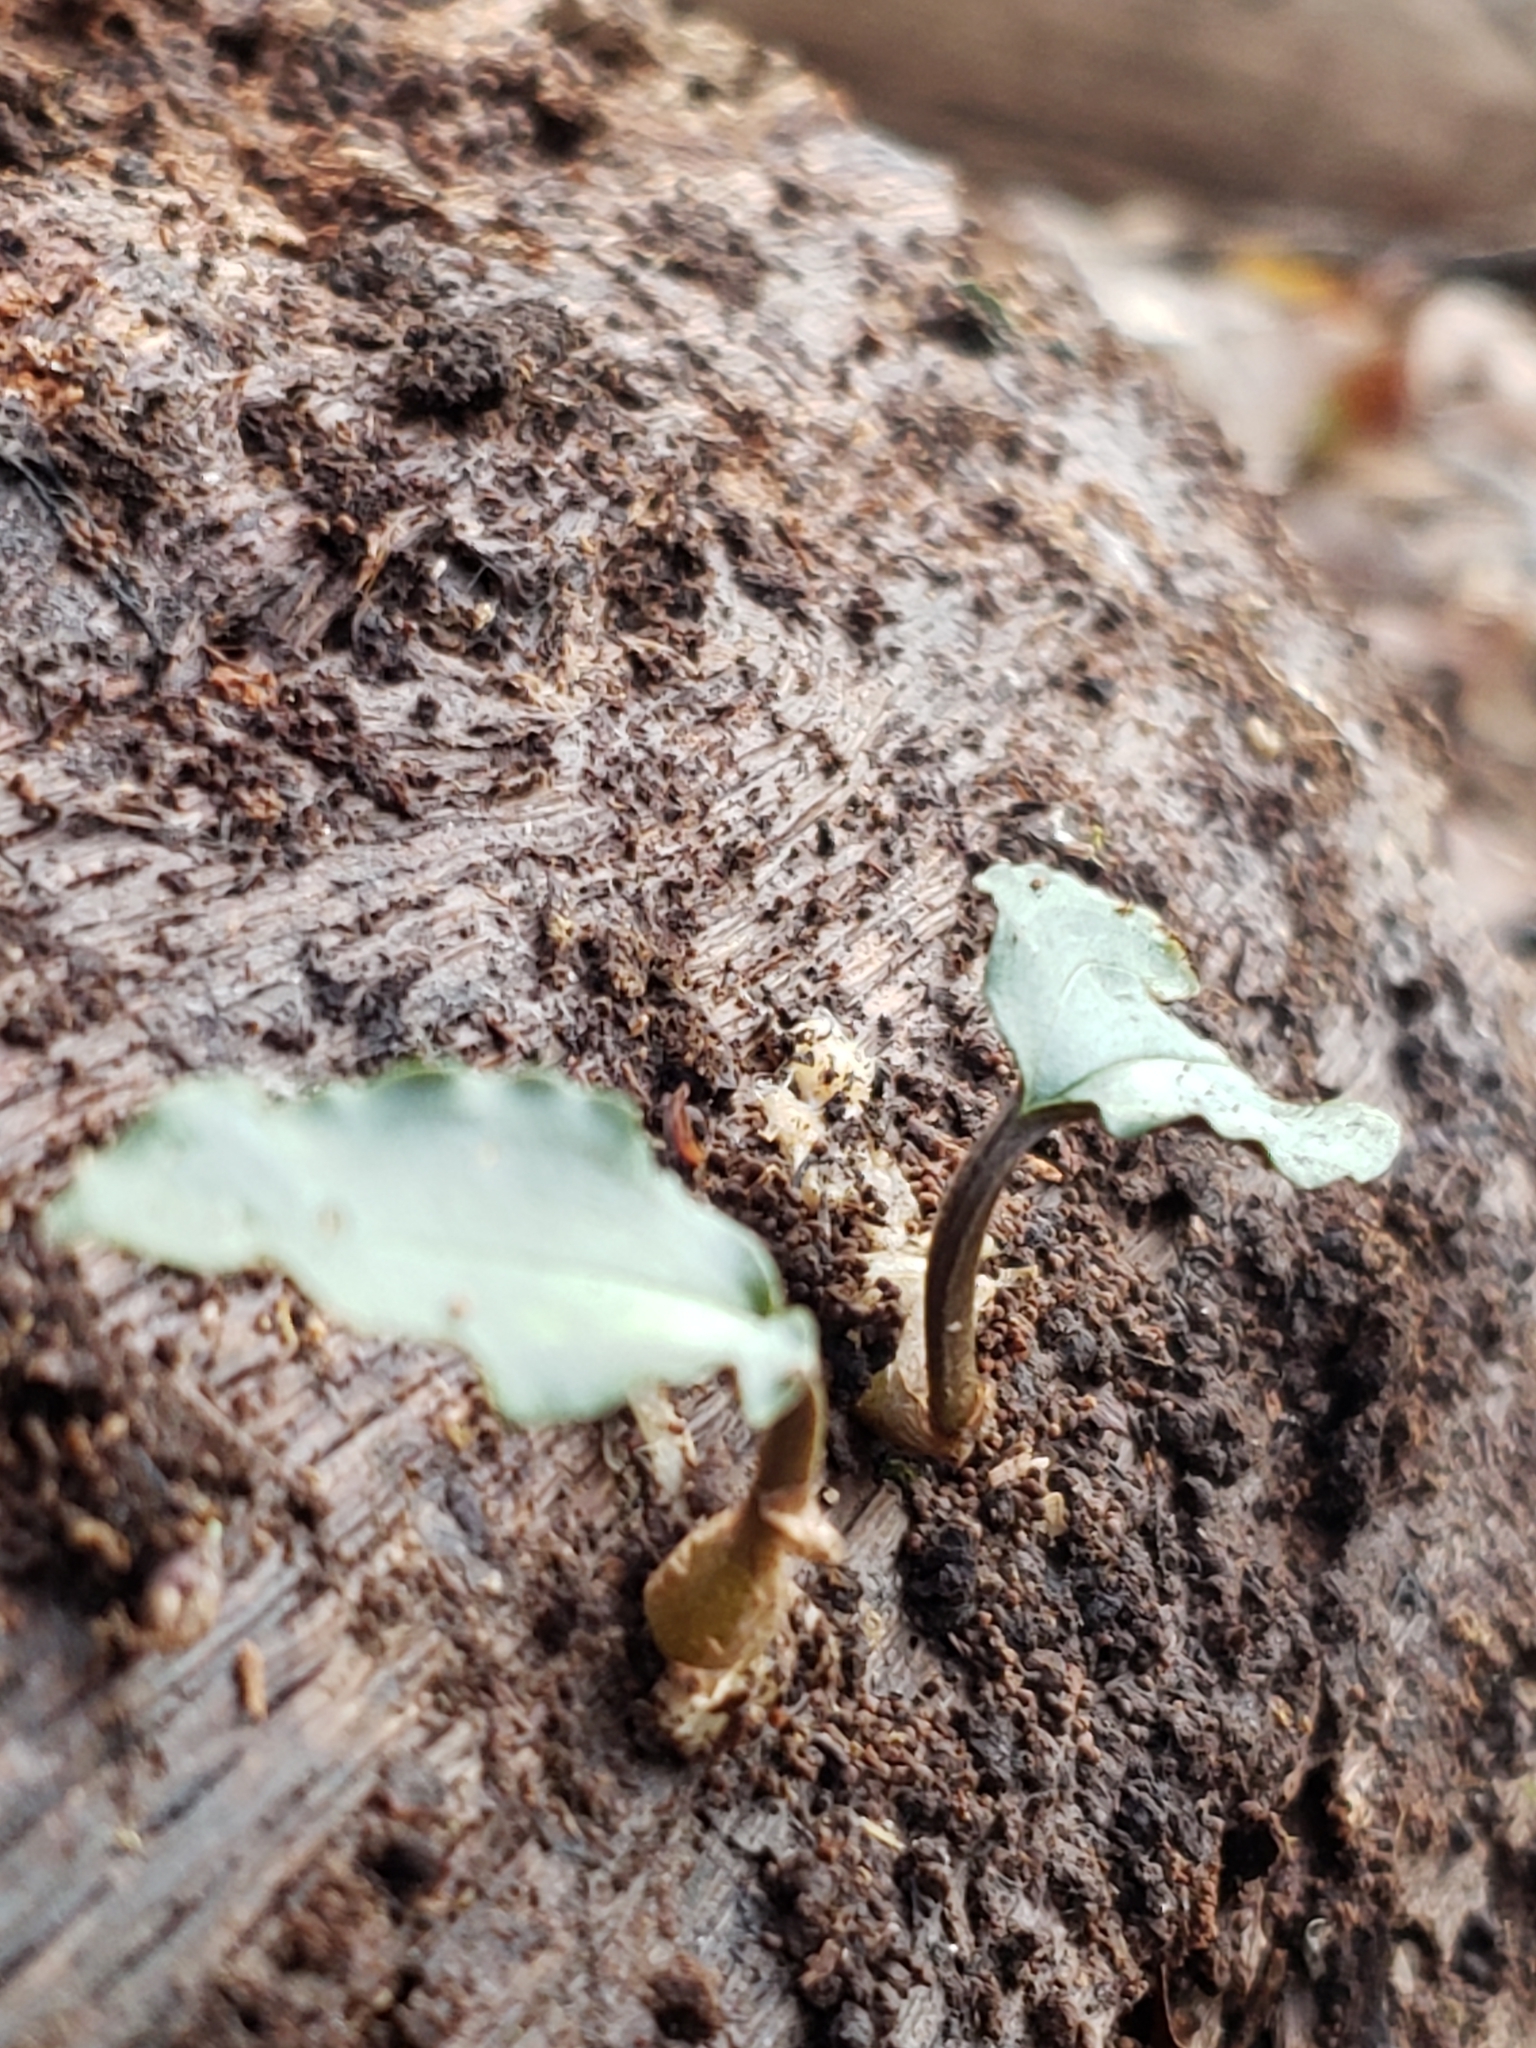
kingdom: Plantae
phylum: Tracheophyta
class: Liliopsida
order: Asparagales
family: Orchidaceae
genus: Tipularia
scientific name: Tipularia discolor
